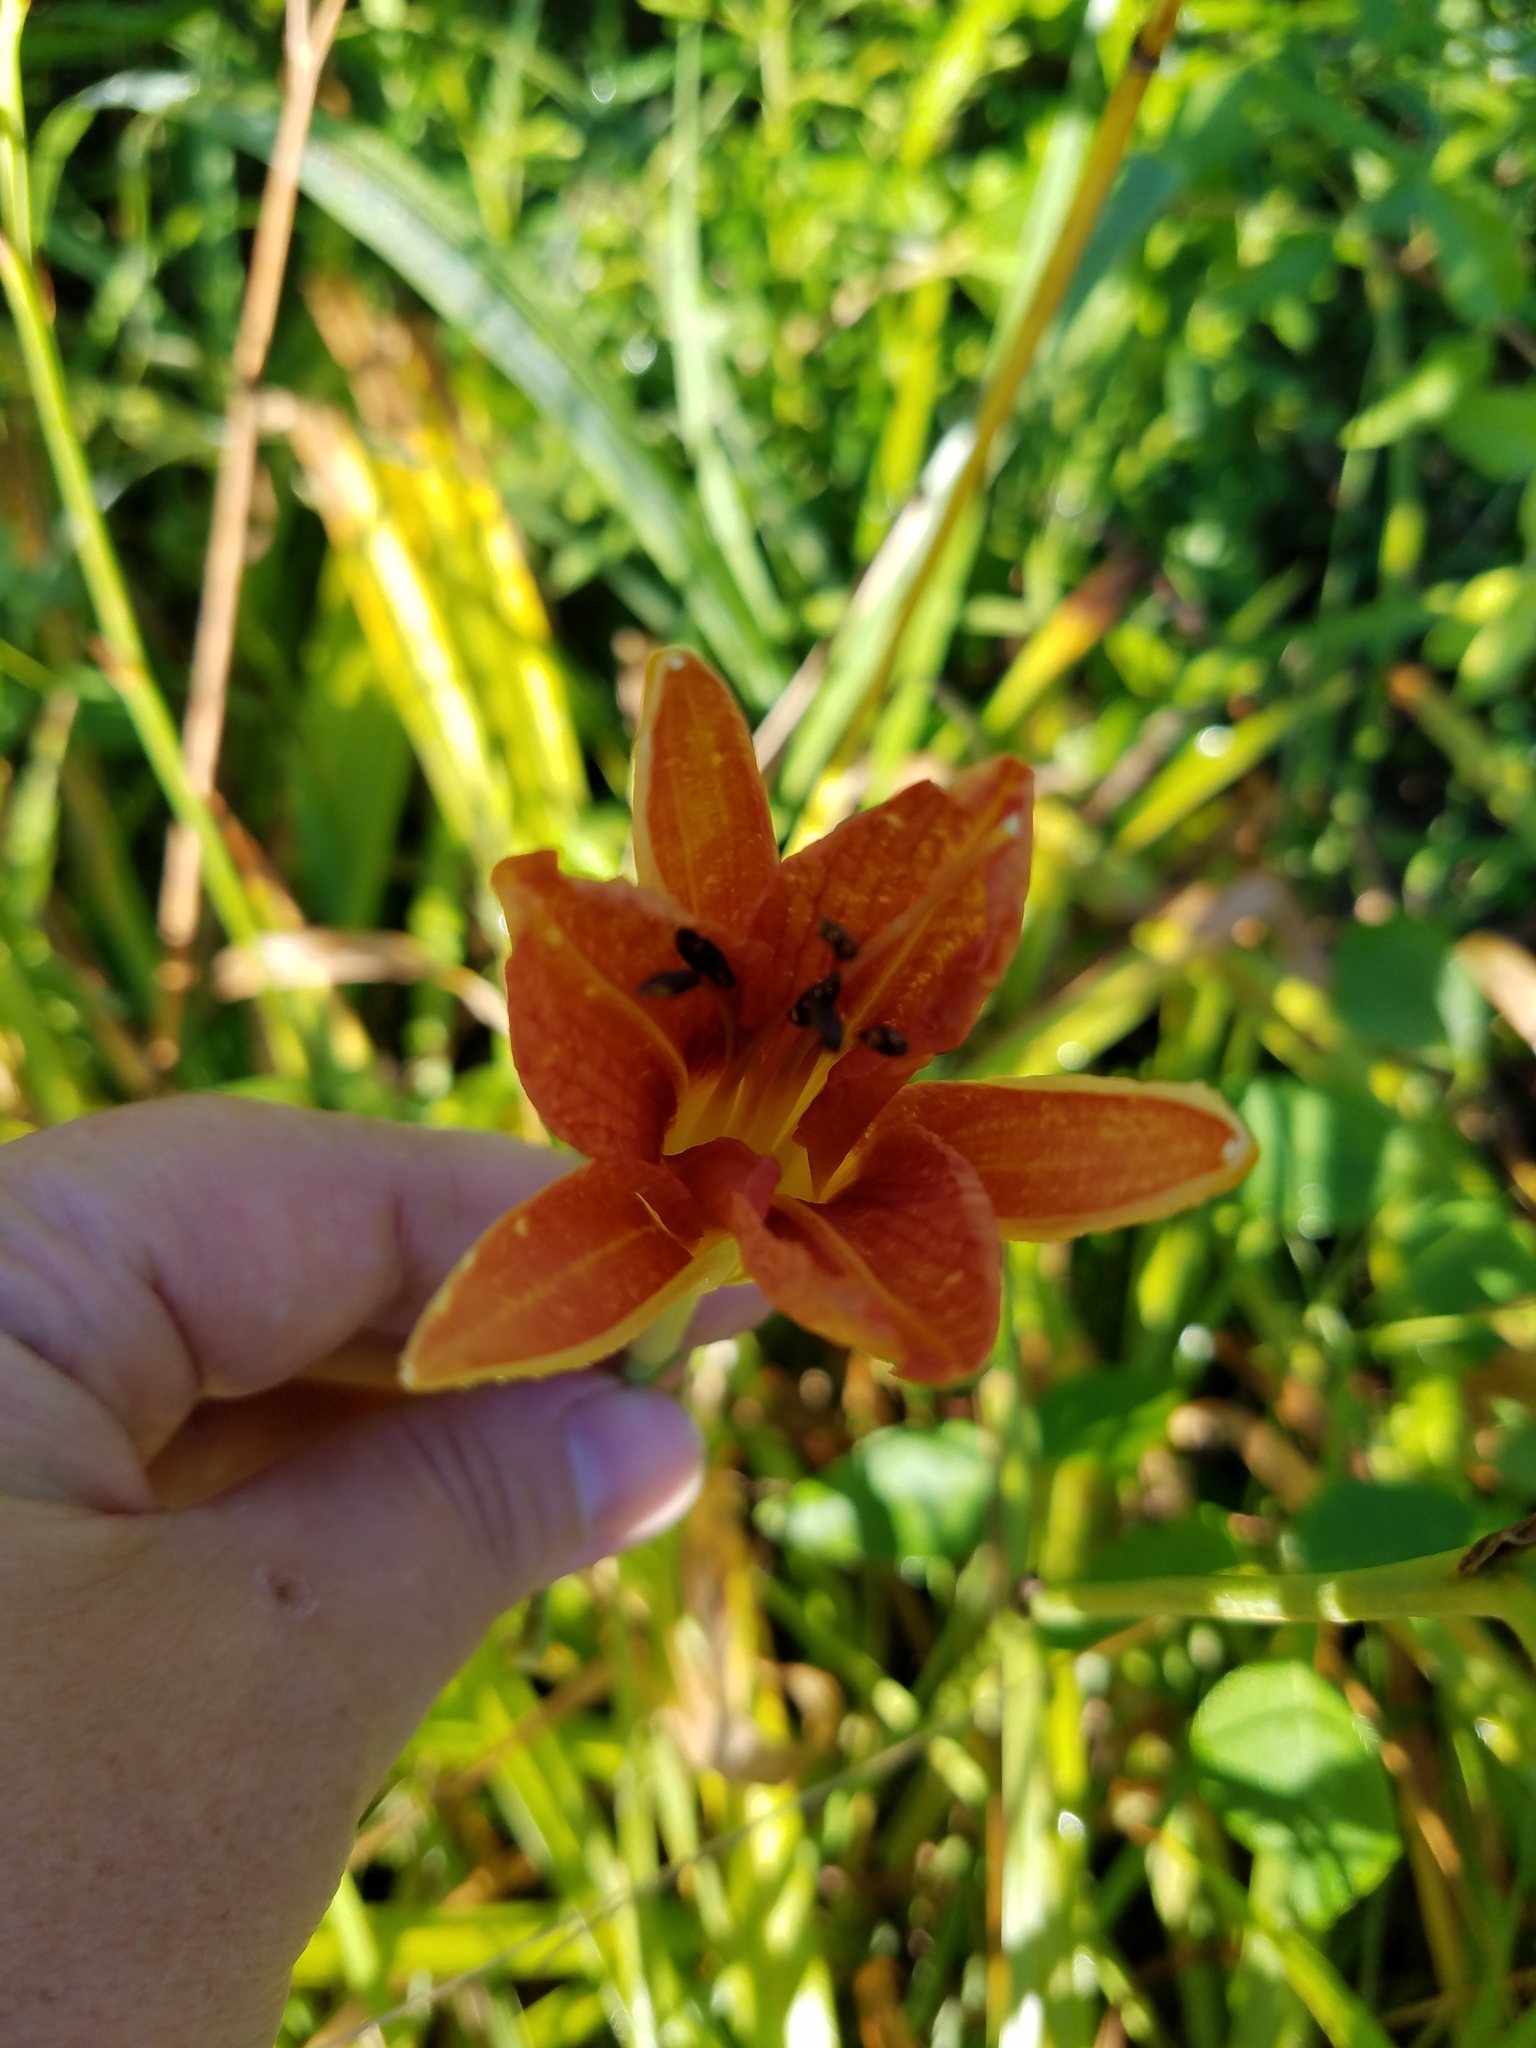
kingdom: Plantae
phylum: Tracheophyta
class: Liliopsida
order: Asparagales
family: Asphodelaceae
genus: Hemerocallis
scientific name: Hemerocallis fulva
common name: Orange day-lily
